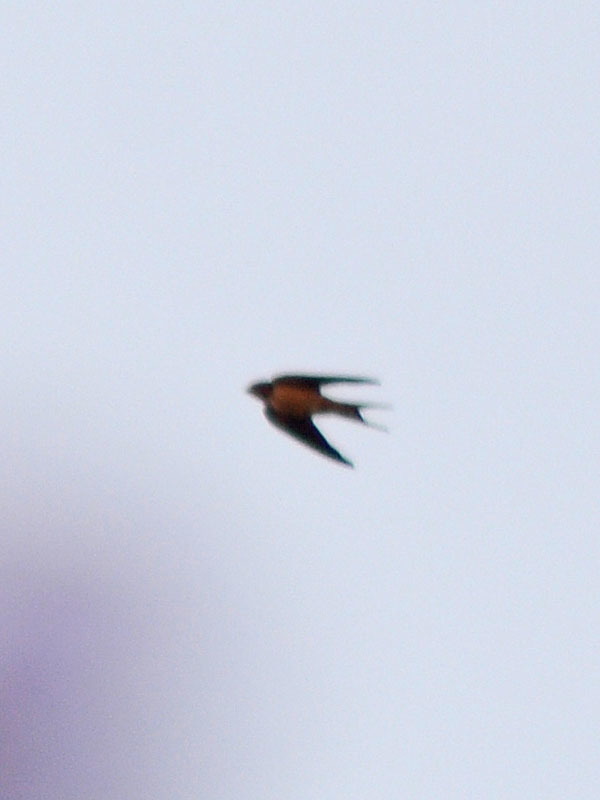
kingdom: Animalia
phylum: Chordata
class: Aves
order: Passeriformes
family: Hirundinidae
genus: Hirundo
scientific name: Hirundo rustica
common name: Barn swallow
